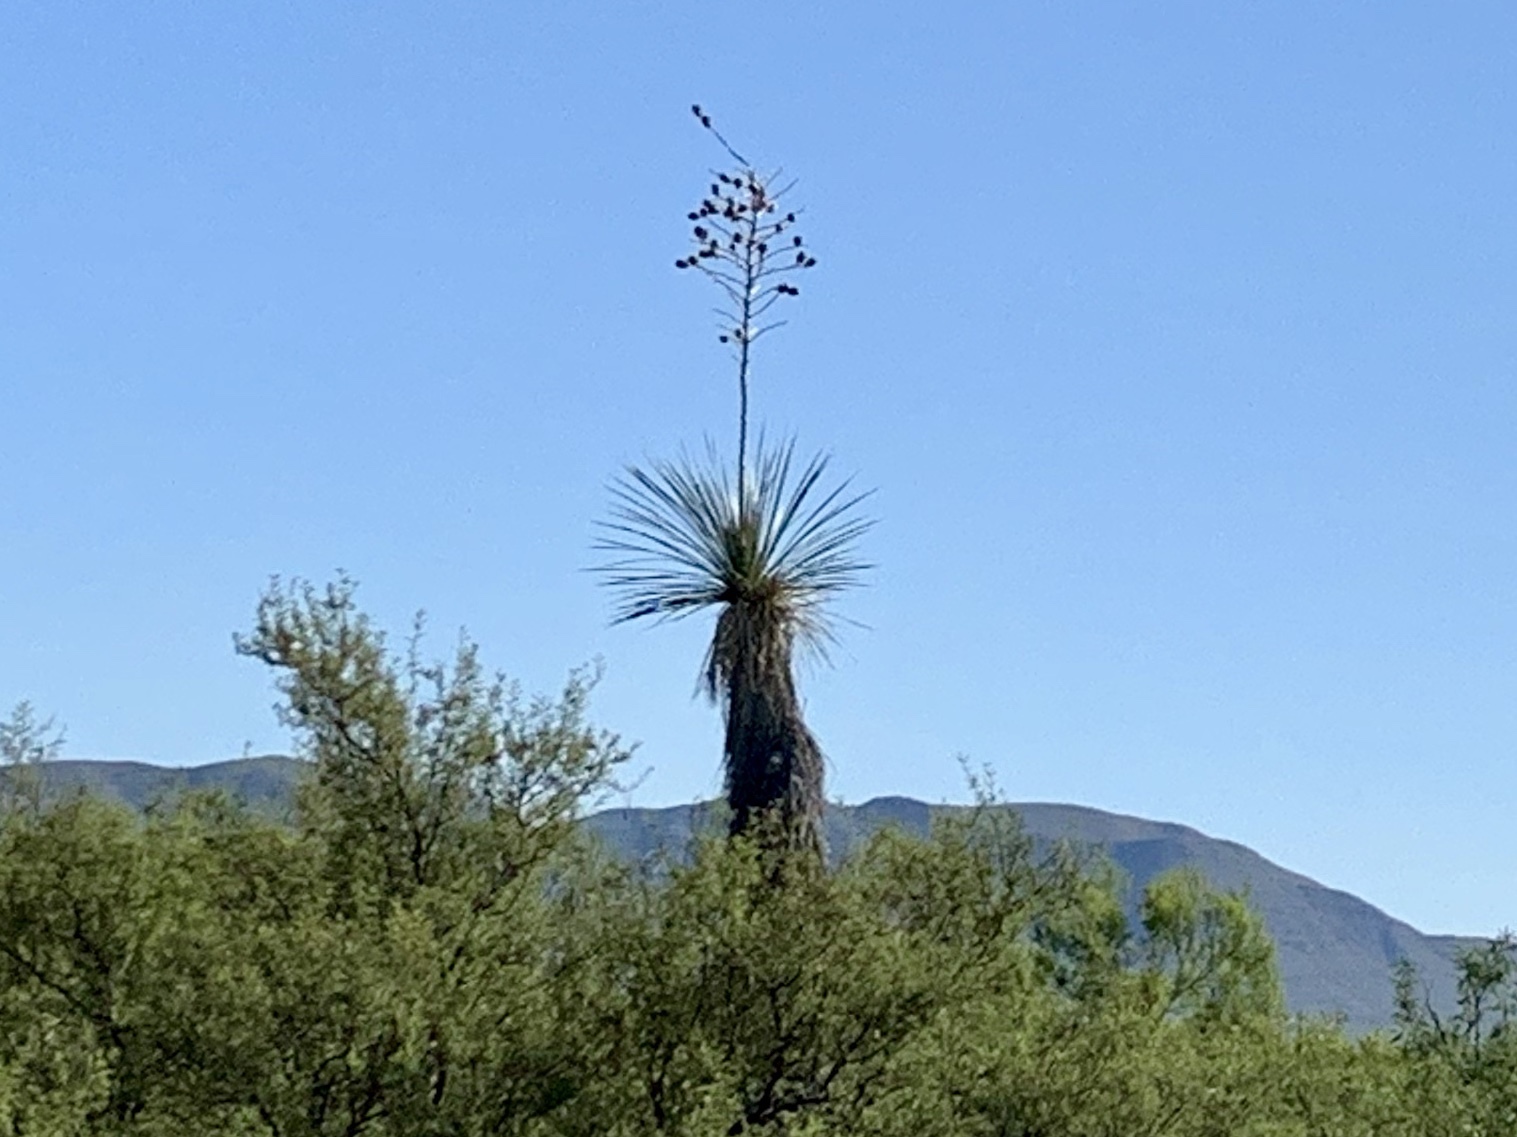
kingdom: Plantae
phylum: Tracheophyta
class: Liliopsida
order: Asparagales
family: Asparagaceae
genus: Yucca
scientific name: Yucca elata
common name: Palmella
